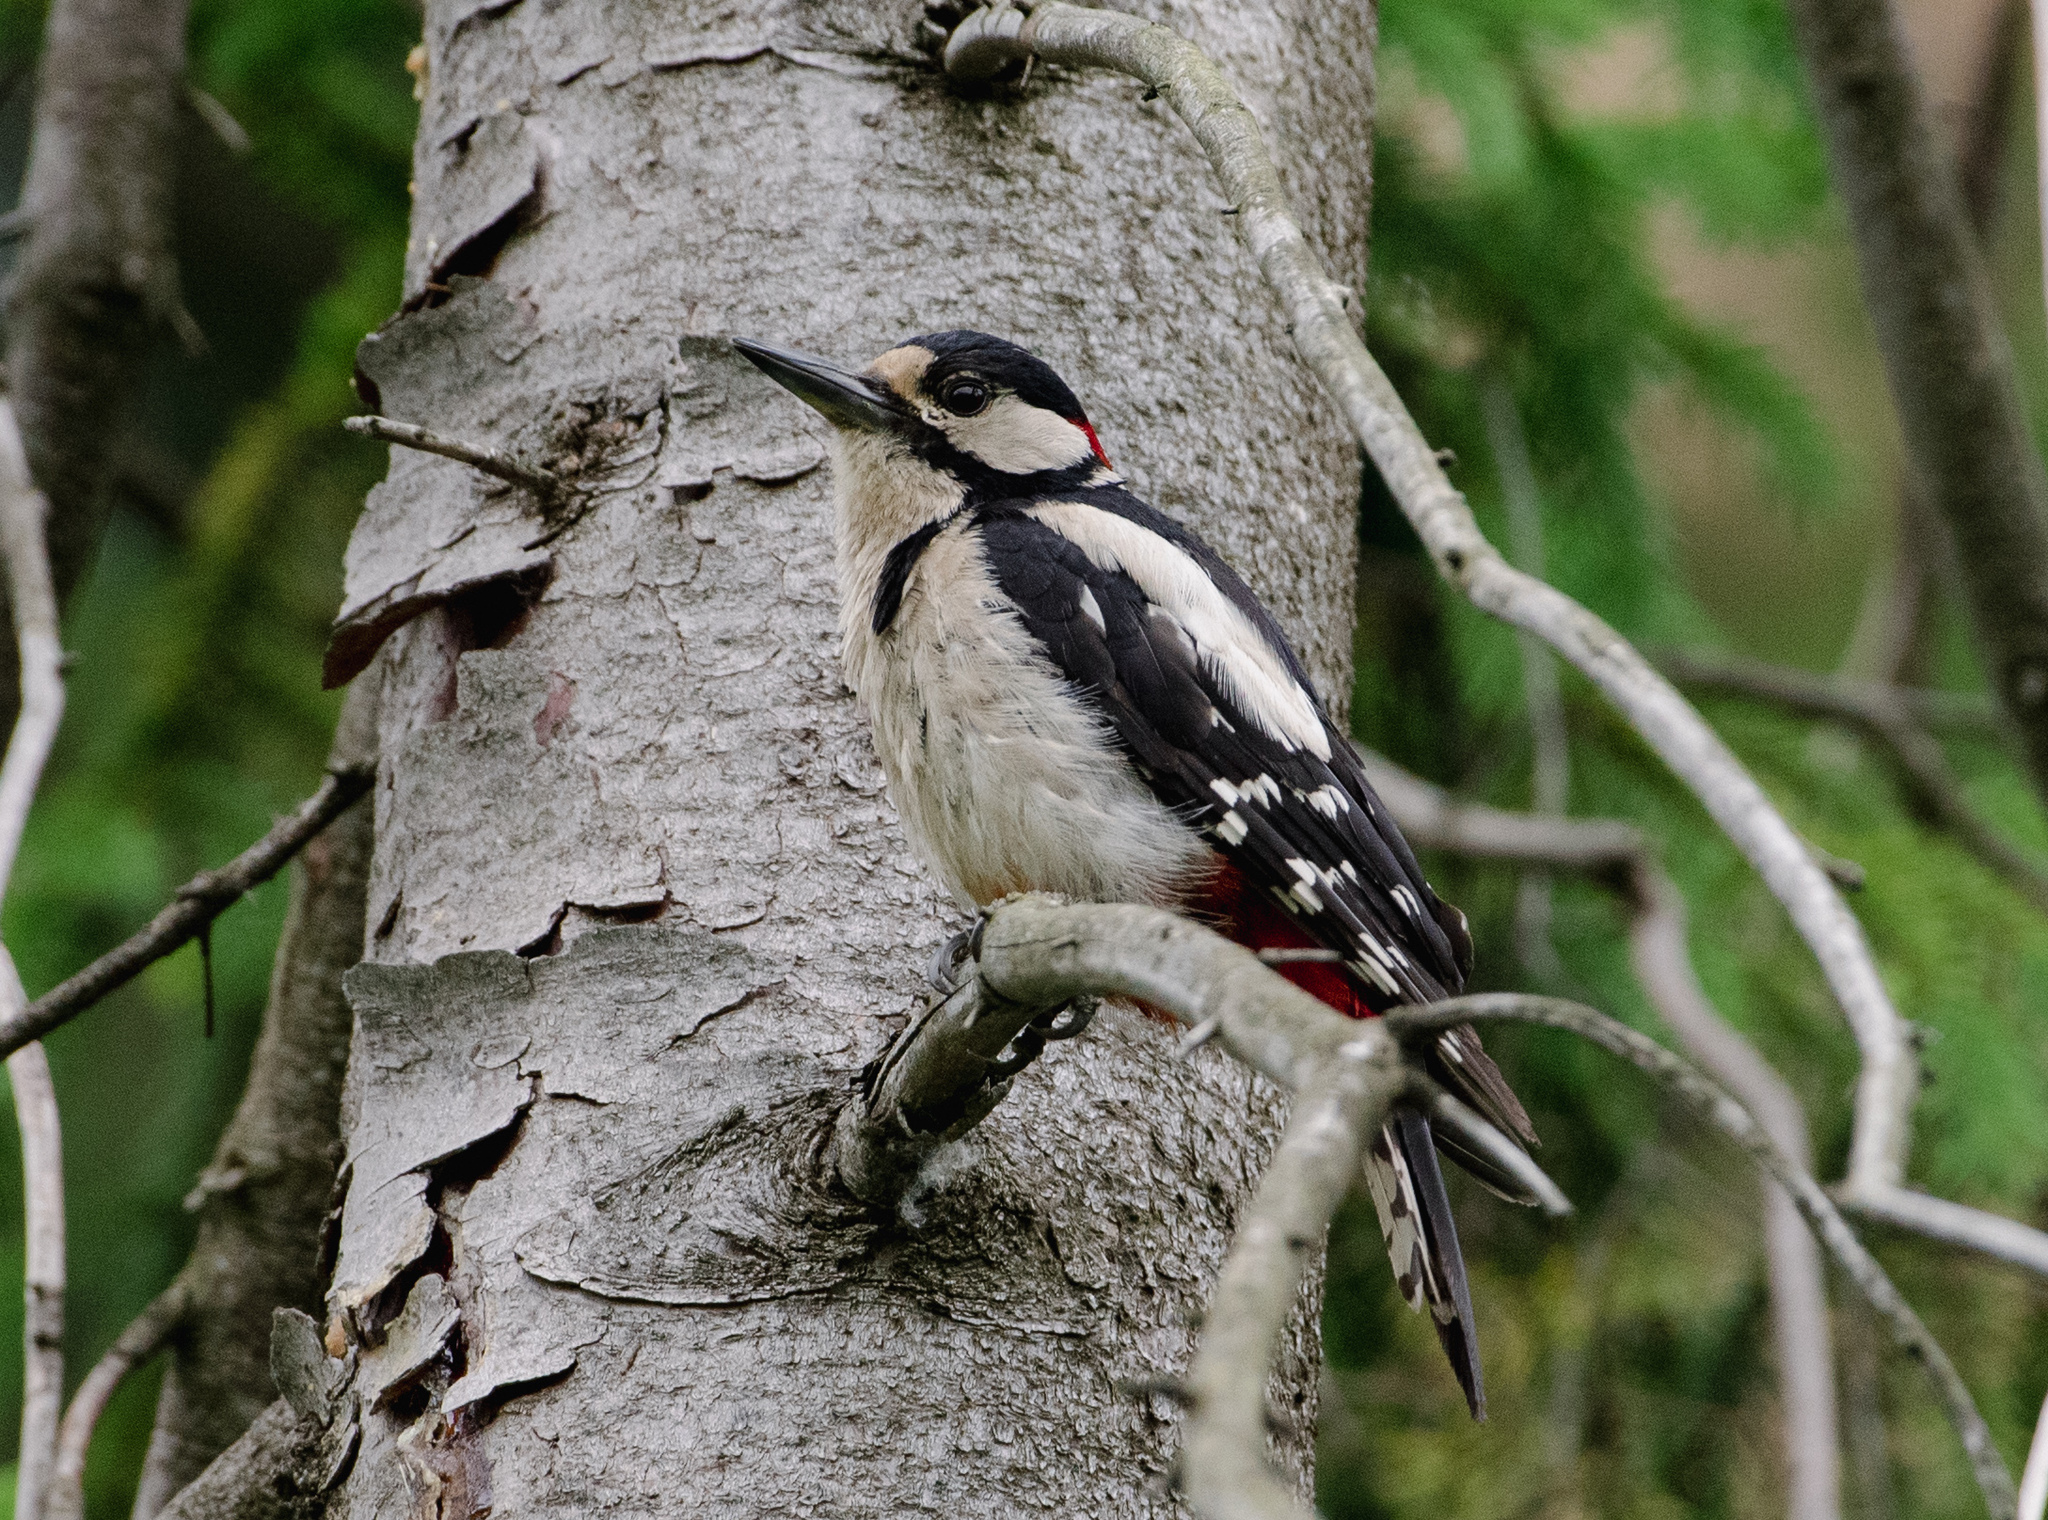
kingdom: Animalia
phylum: Chordata
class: Aves
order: Piciformes
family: Picidae
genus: Dendrocopos
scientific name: Dendrocopos major
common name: Great spotted woodpecker
